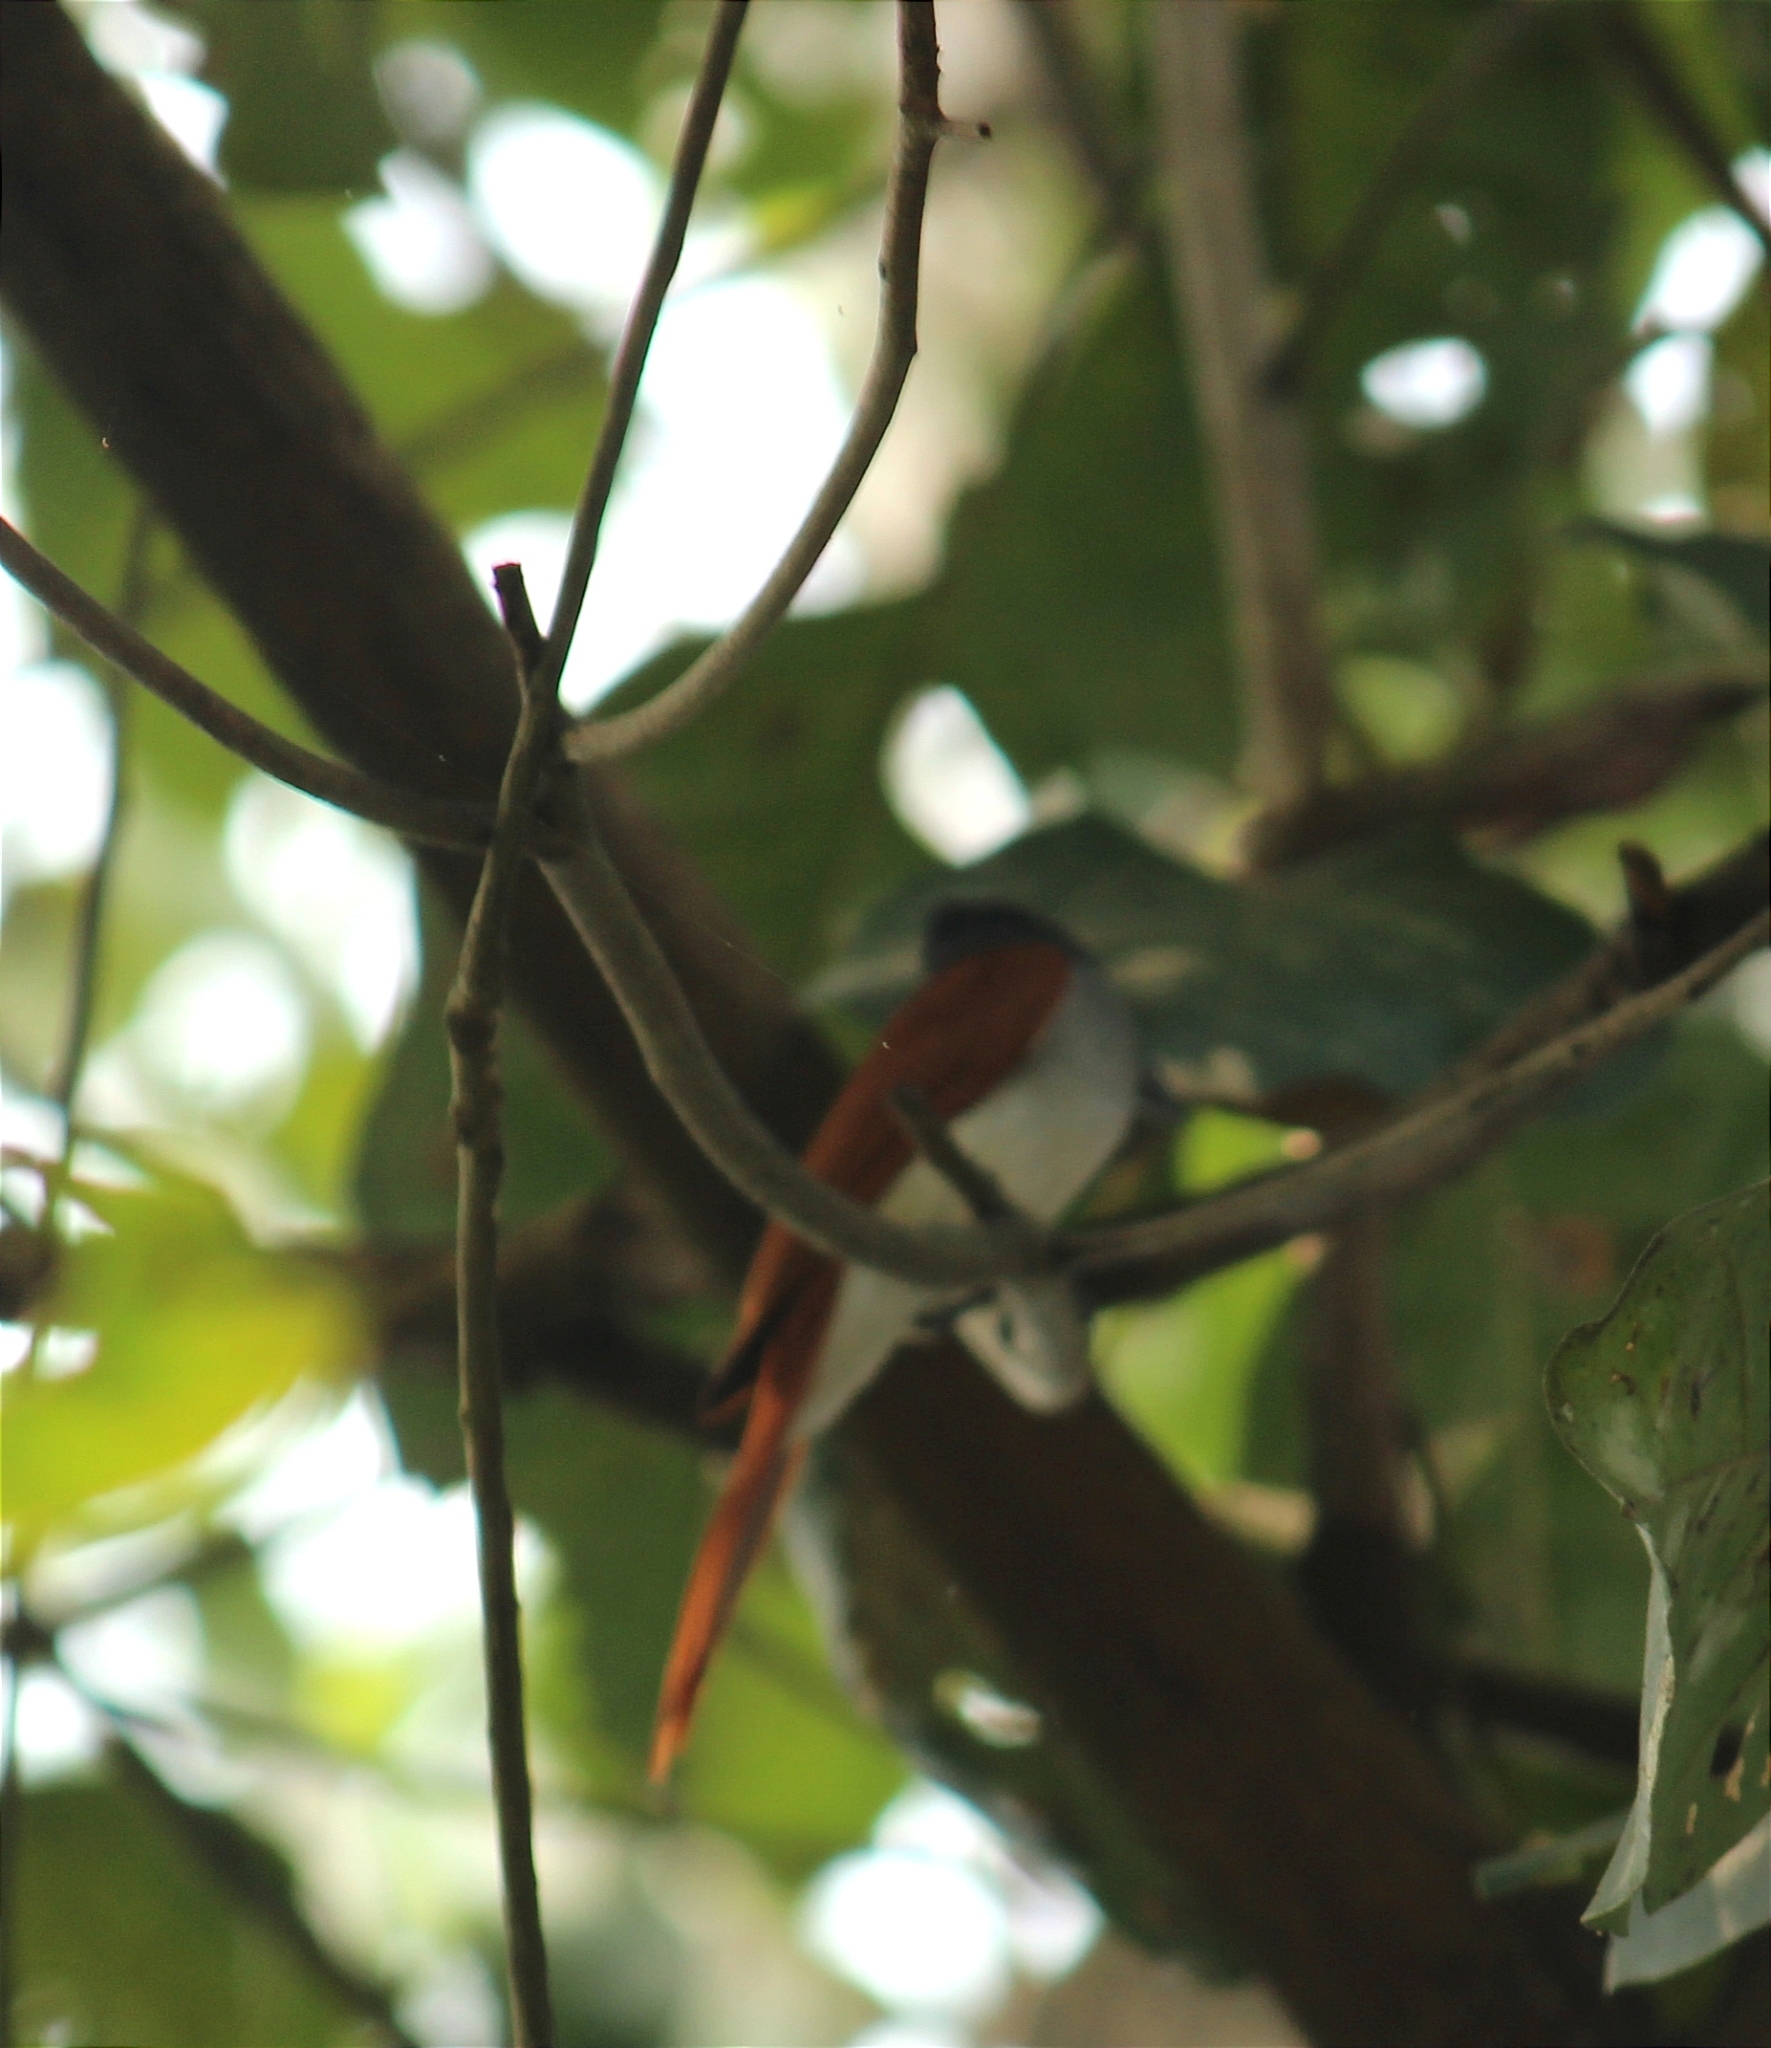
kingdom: Animalia
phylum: Chordata
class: Aves
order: Passeriformes
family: Monarchidae
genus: Terpsiphone
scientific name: Terpsiphone paradisi
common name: Indian paradise flycatcher
